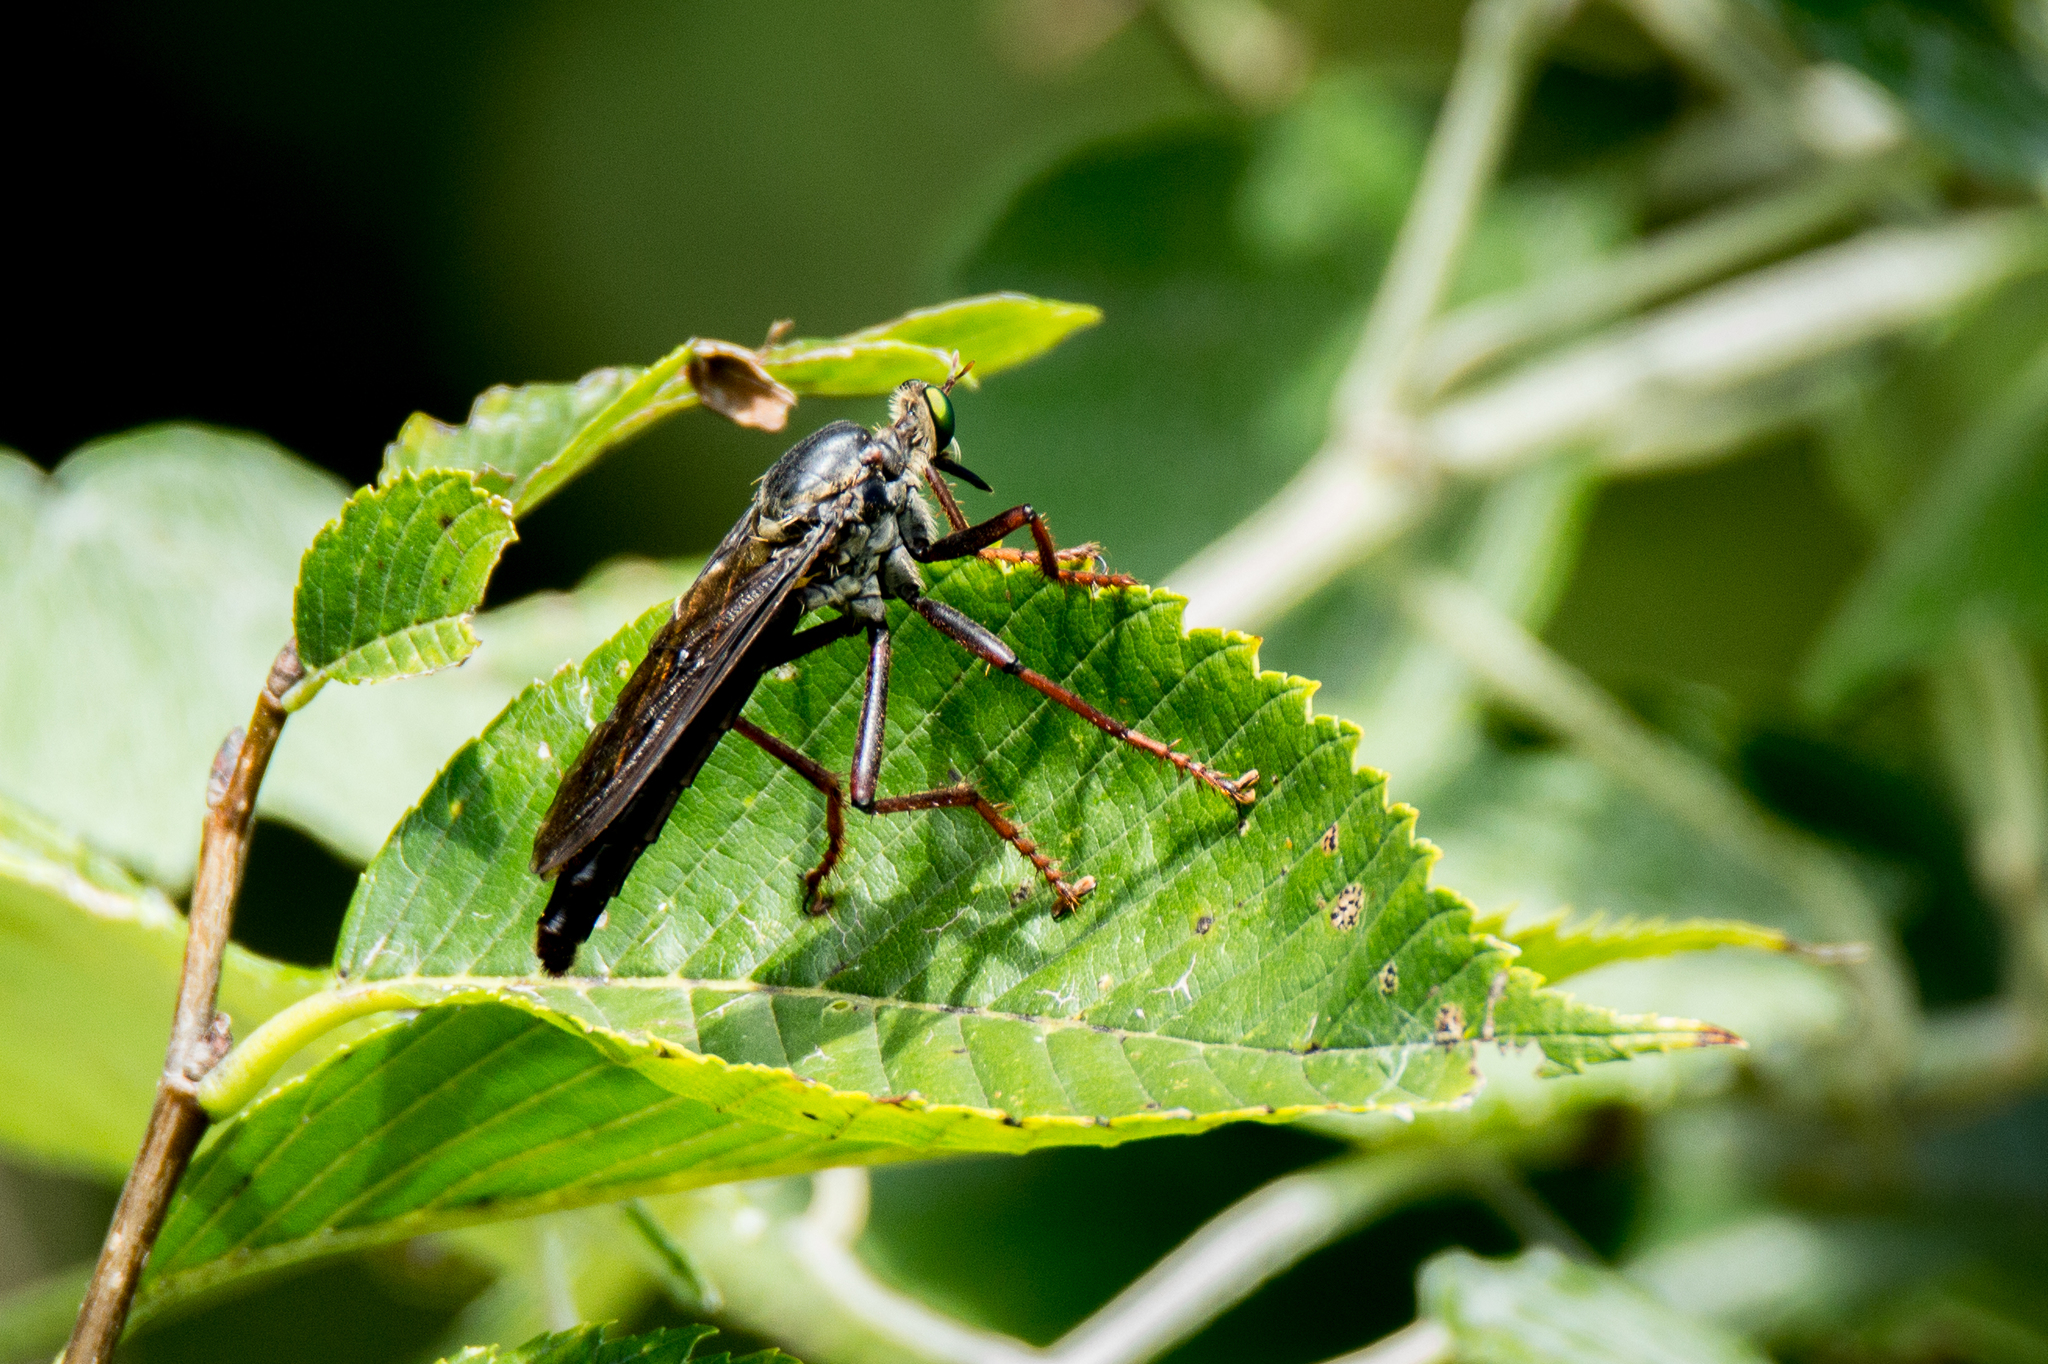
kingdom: Animalia
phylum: Arthropoda
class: Insecta
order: Diptera
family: Asilidae
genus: Microstylum
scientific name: Microstylum morosum
